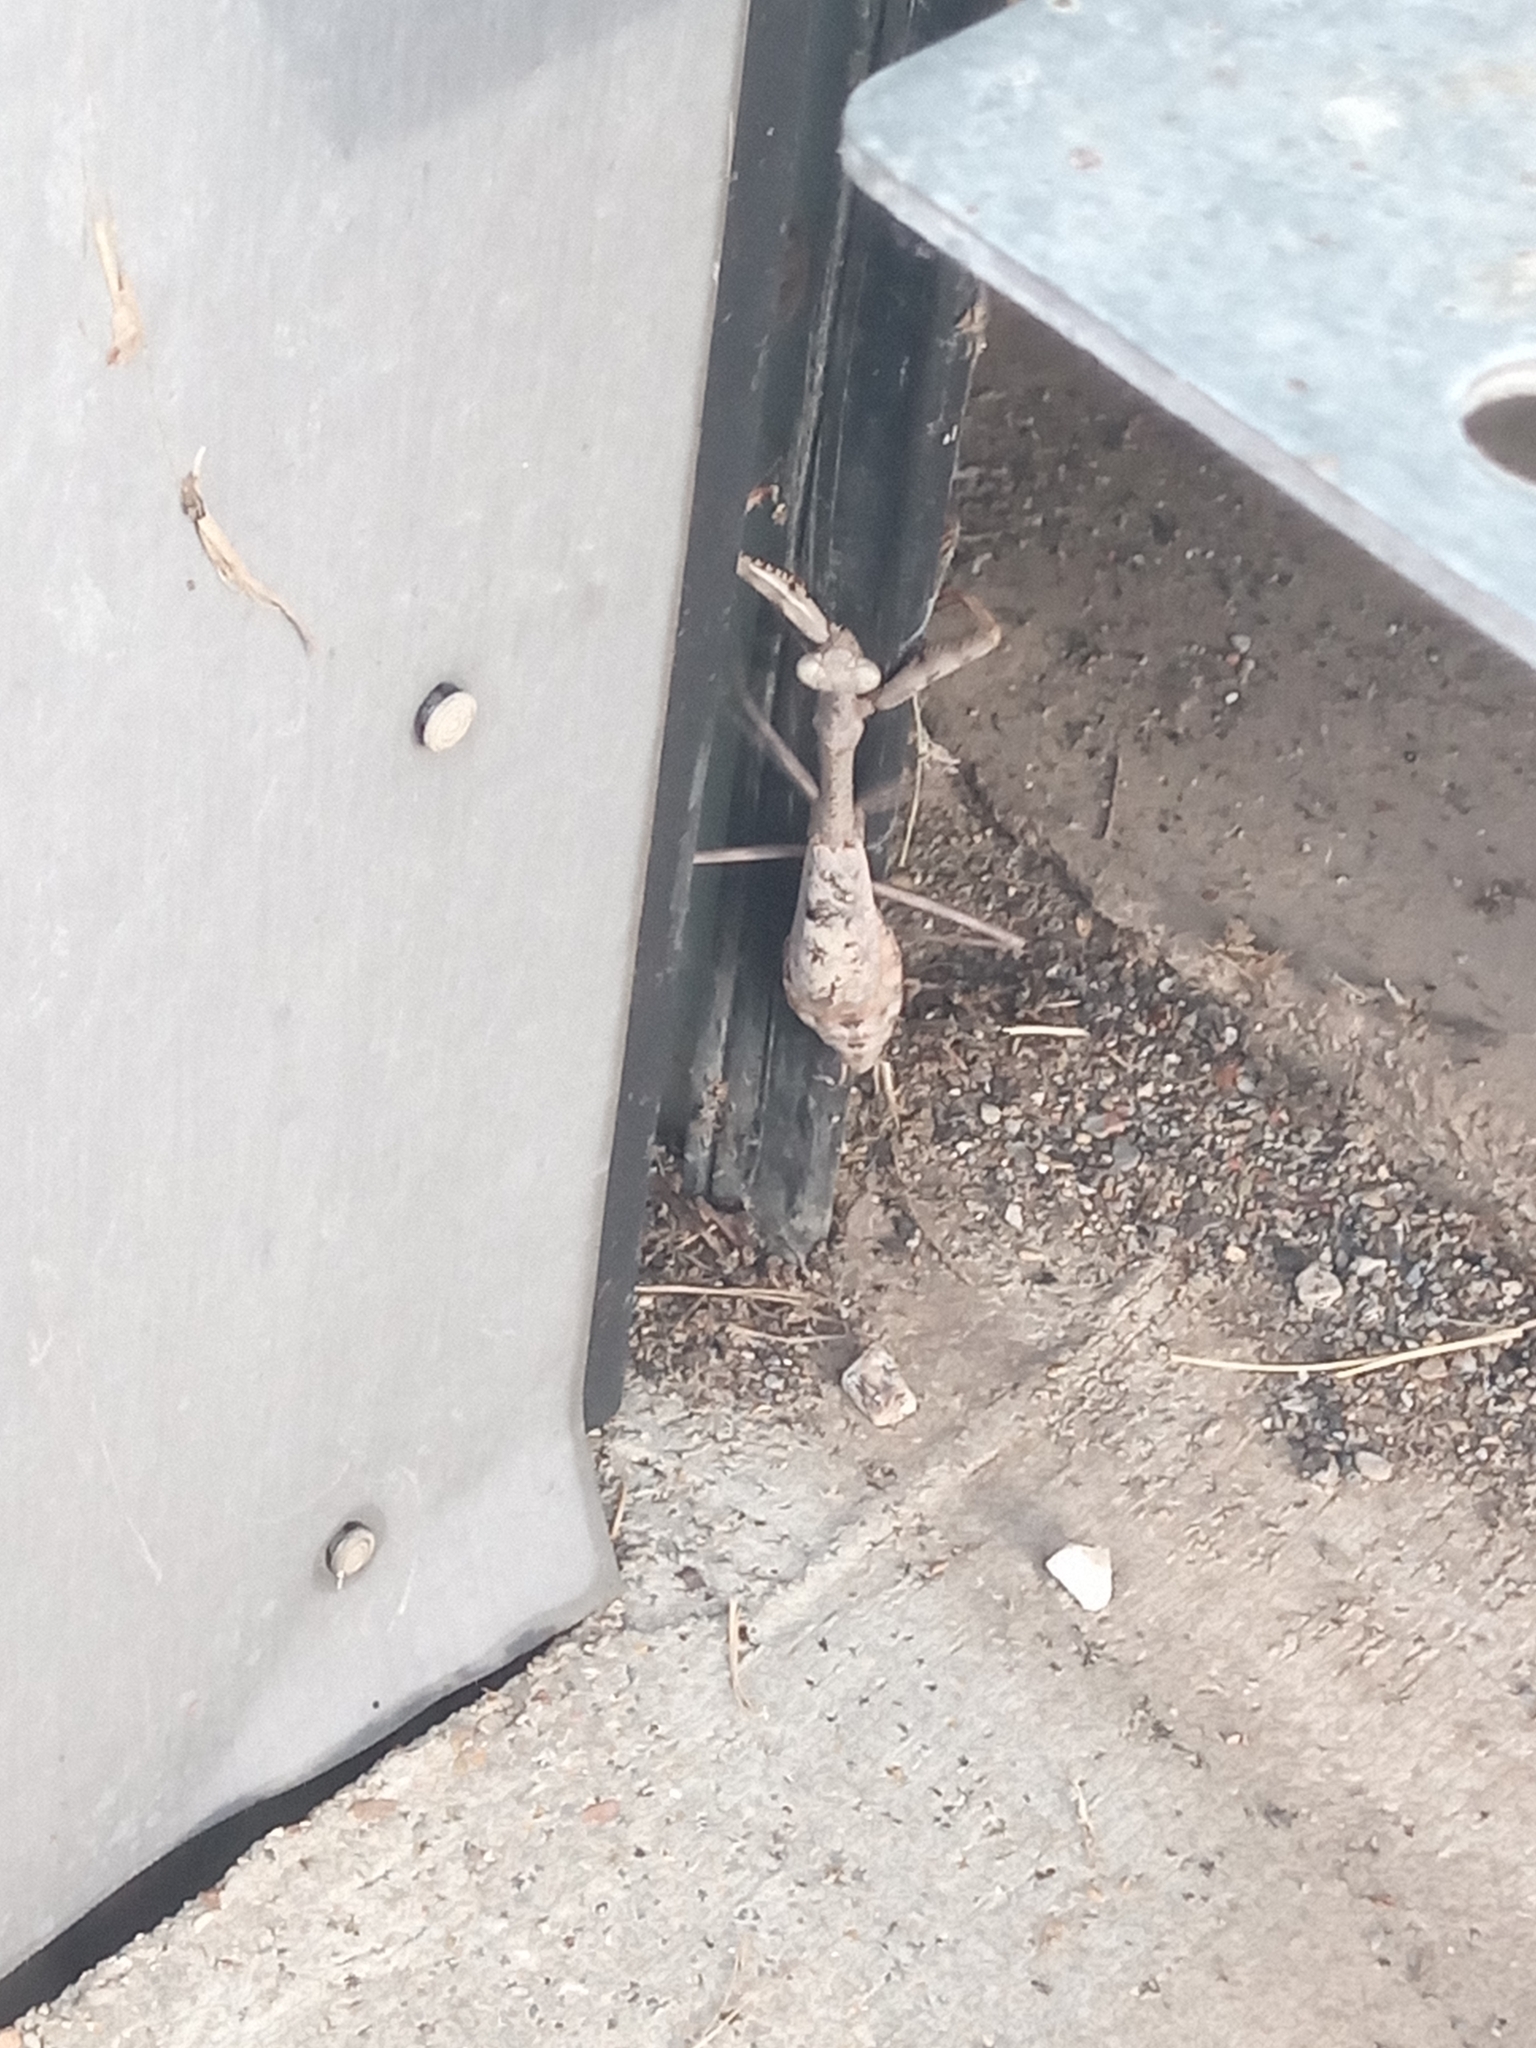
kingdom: Animalia
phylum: Arthropoda
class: Insecta
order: Mantodea
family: Mantidae
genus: Stagmomantis
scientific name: Stagmomantis carolina
